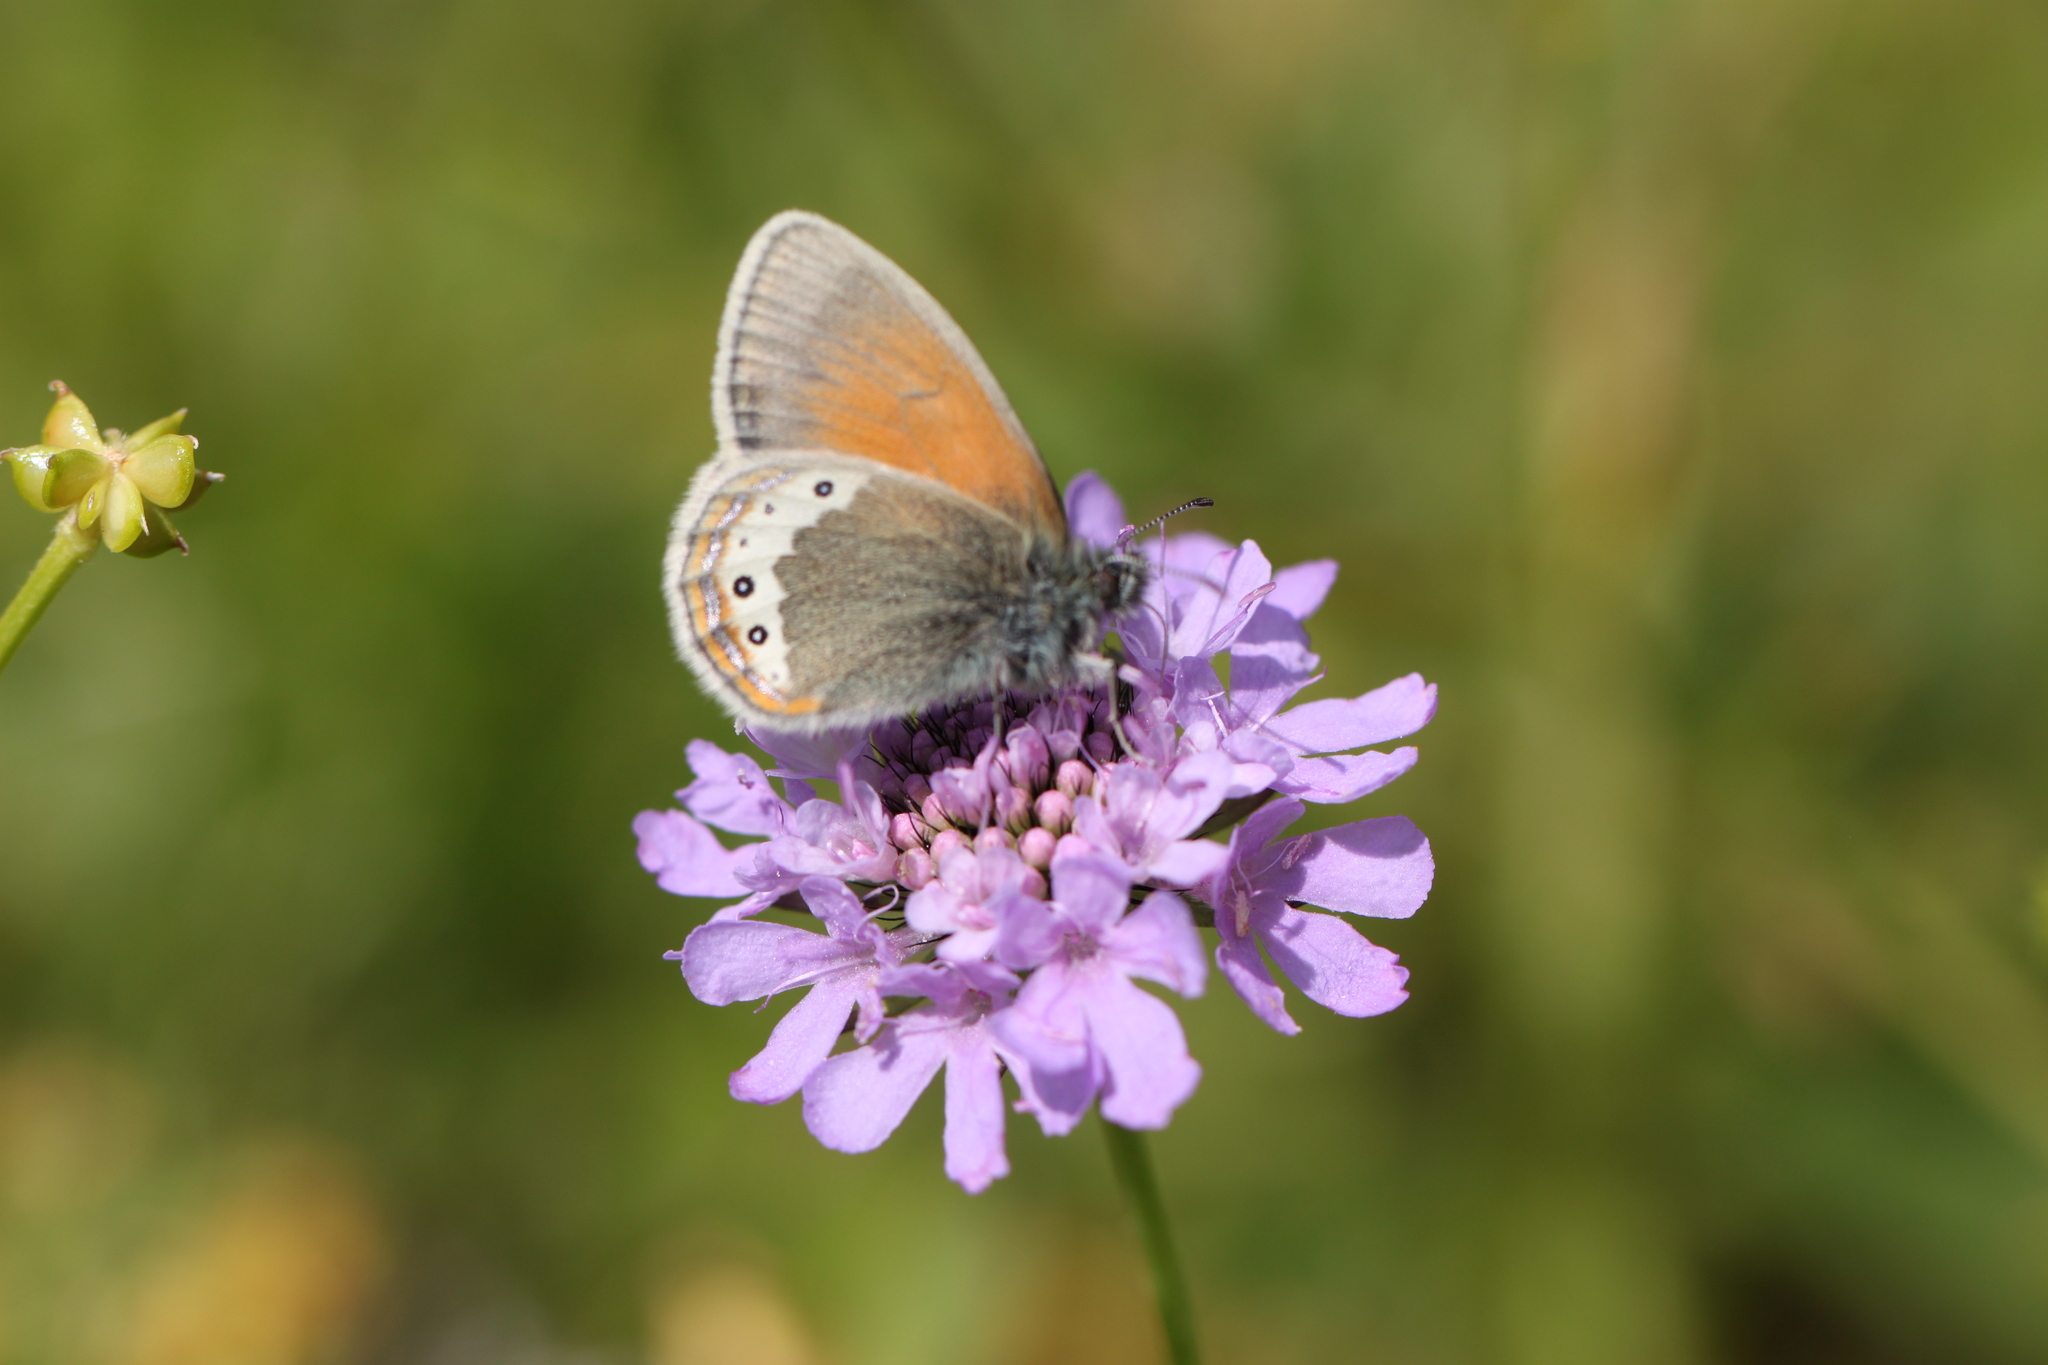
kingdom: Animalia
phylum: Arthropoda
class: Insecta
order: Lepidoptera
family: Nymphalidae
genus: Coenonympha
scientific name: Coenonympha
